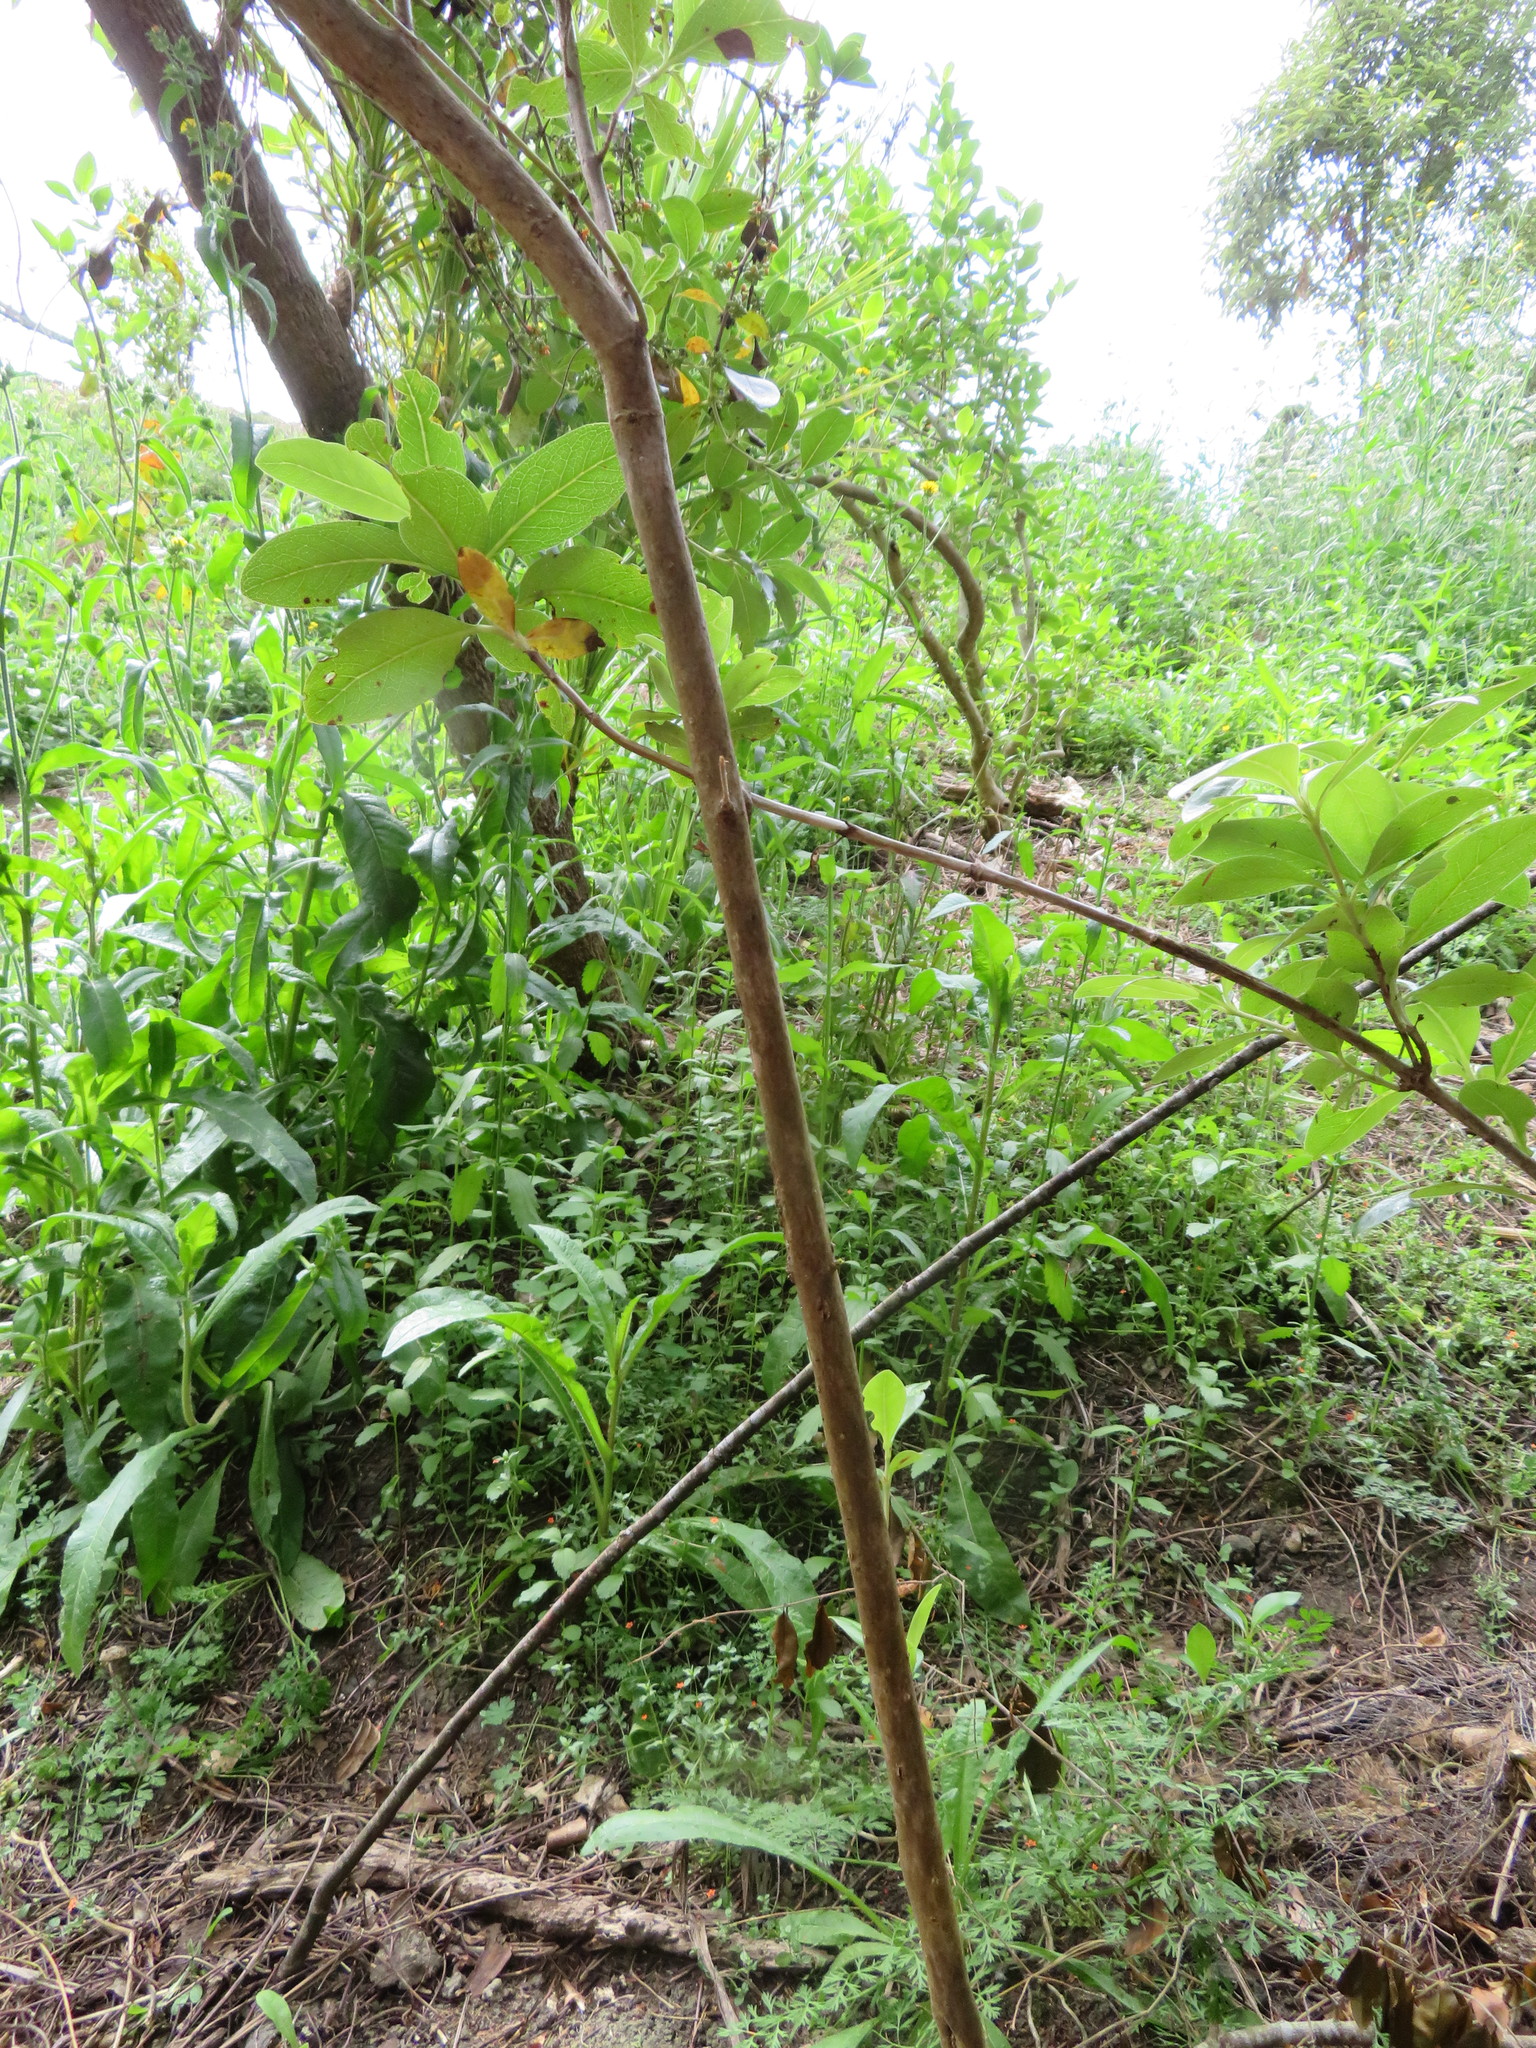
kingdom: Plantae
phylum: Tracheophyta
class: Magnoliopsida
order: Gentianales
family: Rubiaceae
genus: Coprosma
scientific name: Coprosma robusta
